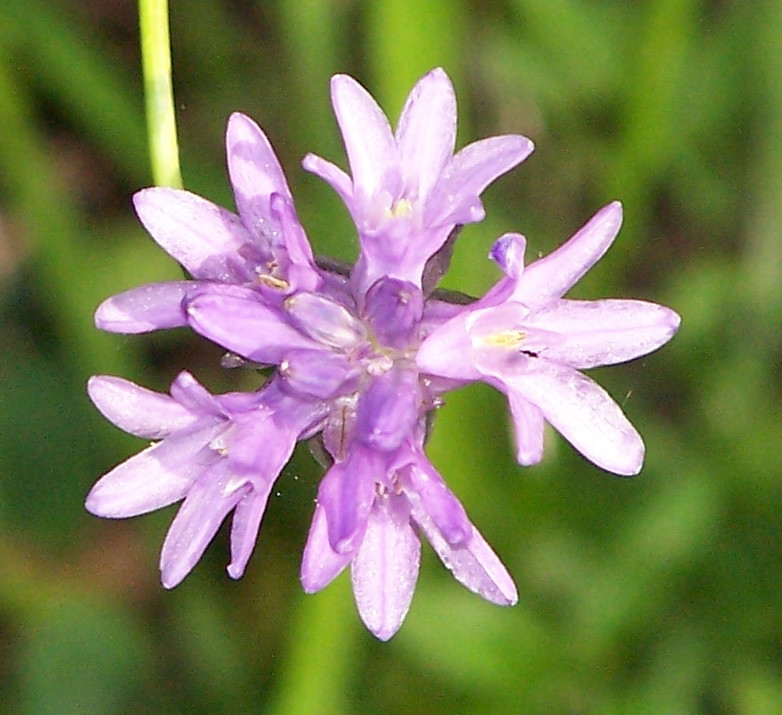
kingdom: Plantae
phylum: Tracheophyta
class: Liliopsida
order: Asparagales
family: Asparagaceae
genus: Dichelostemma
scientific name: Dichelostemma congestum
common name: Fork-tooth ookow
